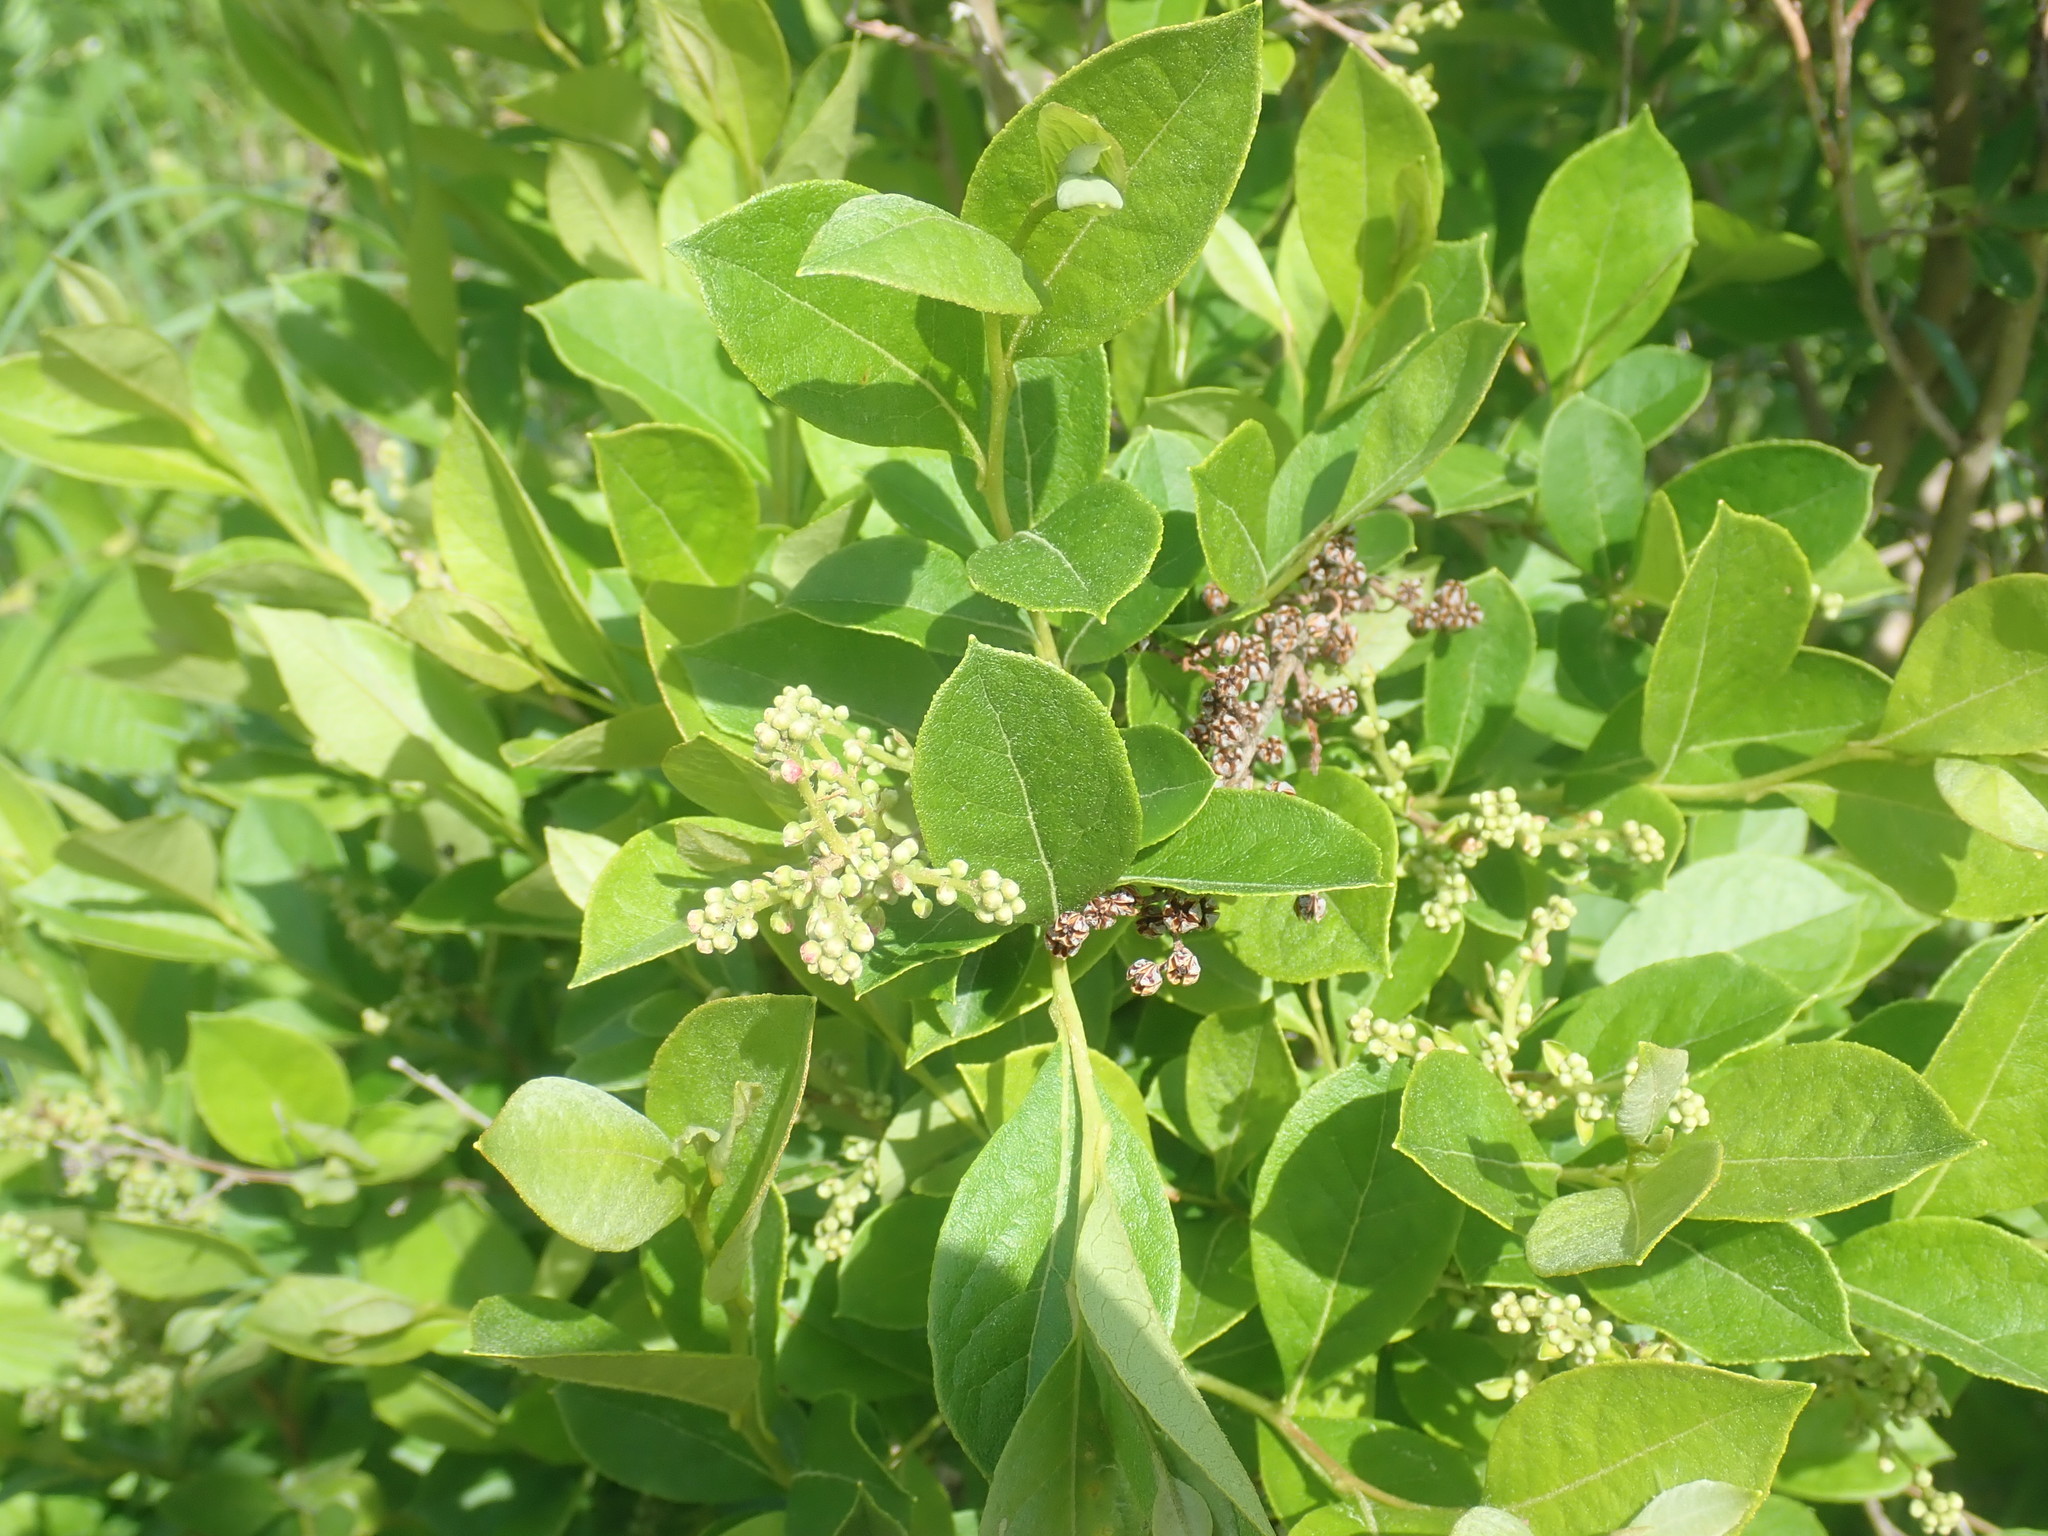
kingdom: Plantae
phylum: Tracheophyta
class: Magnoliopsida
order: Ericales
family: Ericaceae
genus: Lyonia
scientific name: Lyonia ligustrina
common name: Maleberry
